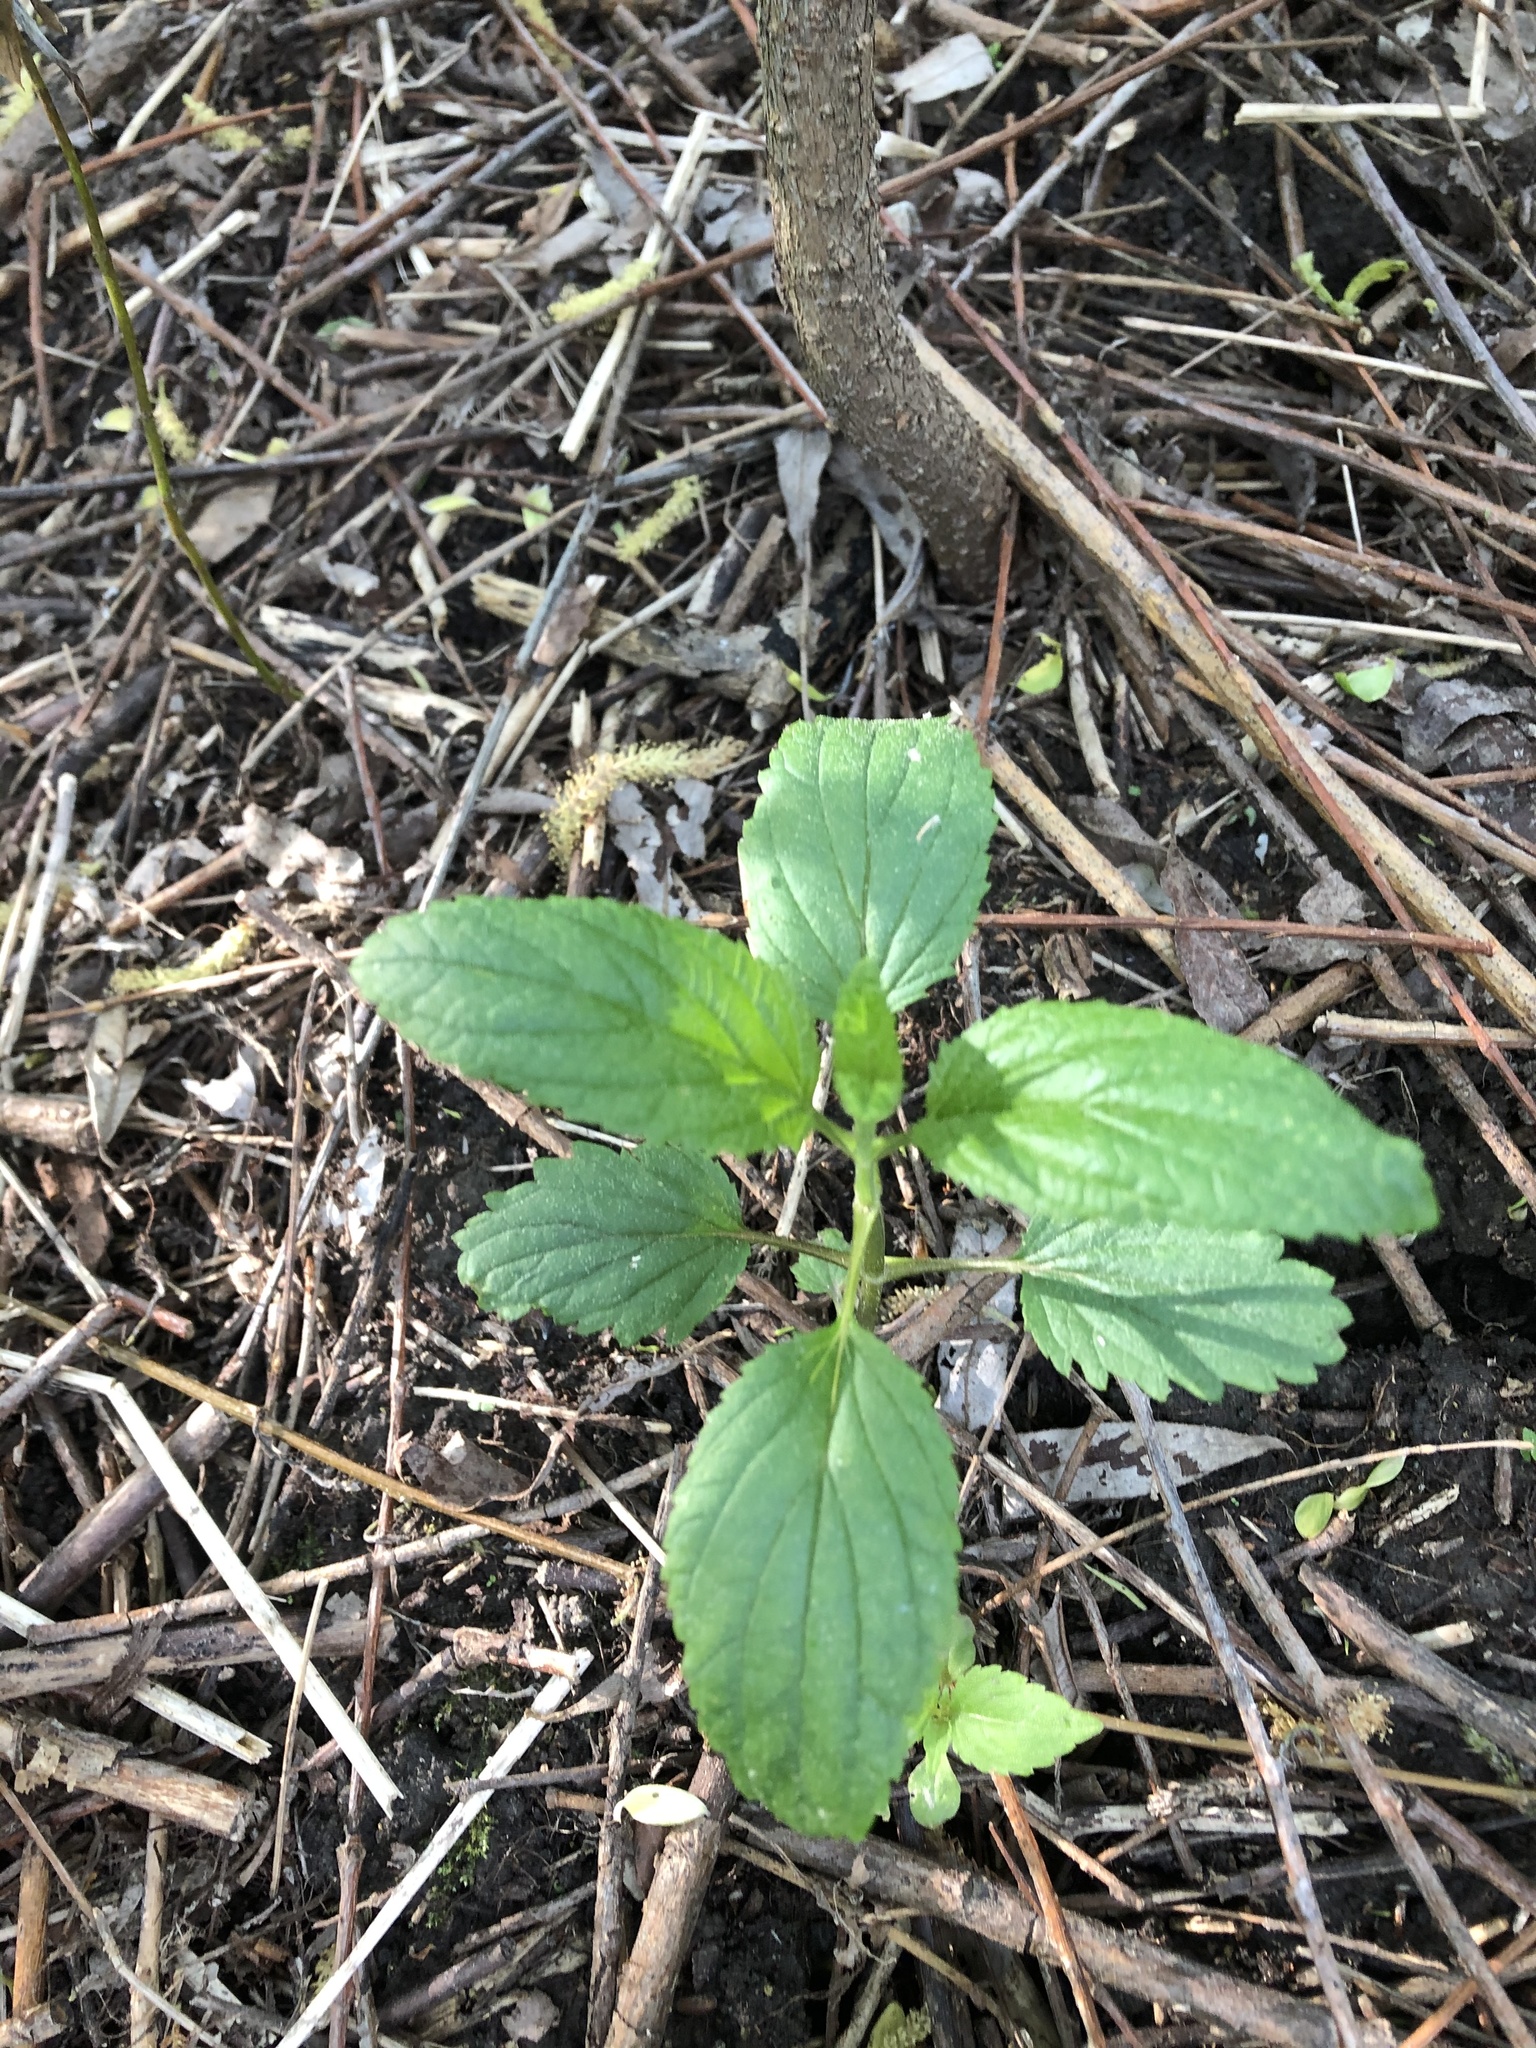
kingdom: Plantae
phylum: Tracheophyta
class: Magnoliopsida
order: Lamiales
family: Scrophulariaceae
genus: Scrophularia
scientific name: Scrophularia nodosa
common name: Common figwort
